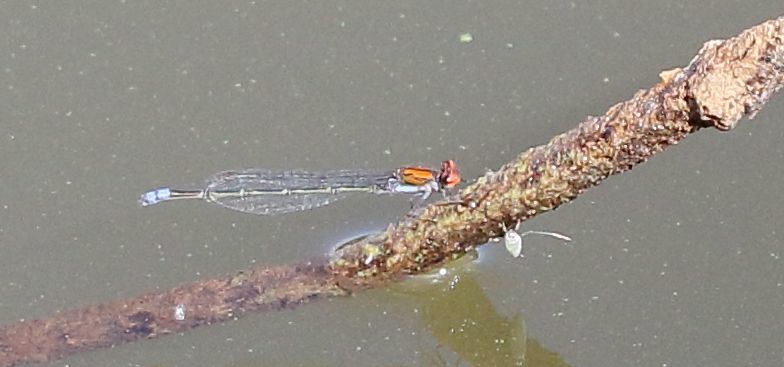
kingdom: Animalia
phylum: Arthropoda
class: Insecta
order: Odonata
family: Coenagrionidae
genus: Pseudagrion
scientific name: Pseudagrion massaicum
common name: Masai sprite
